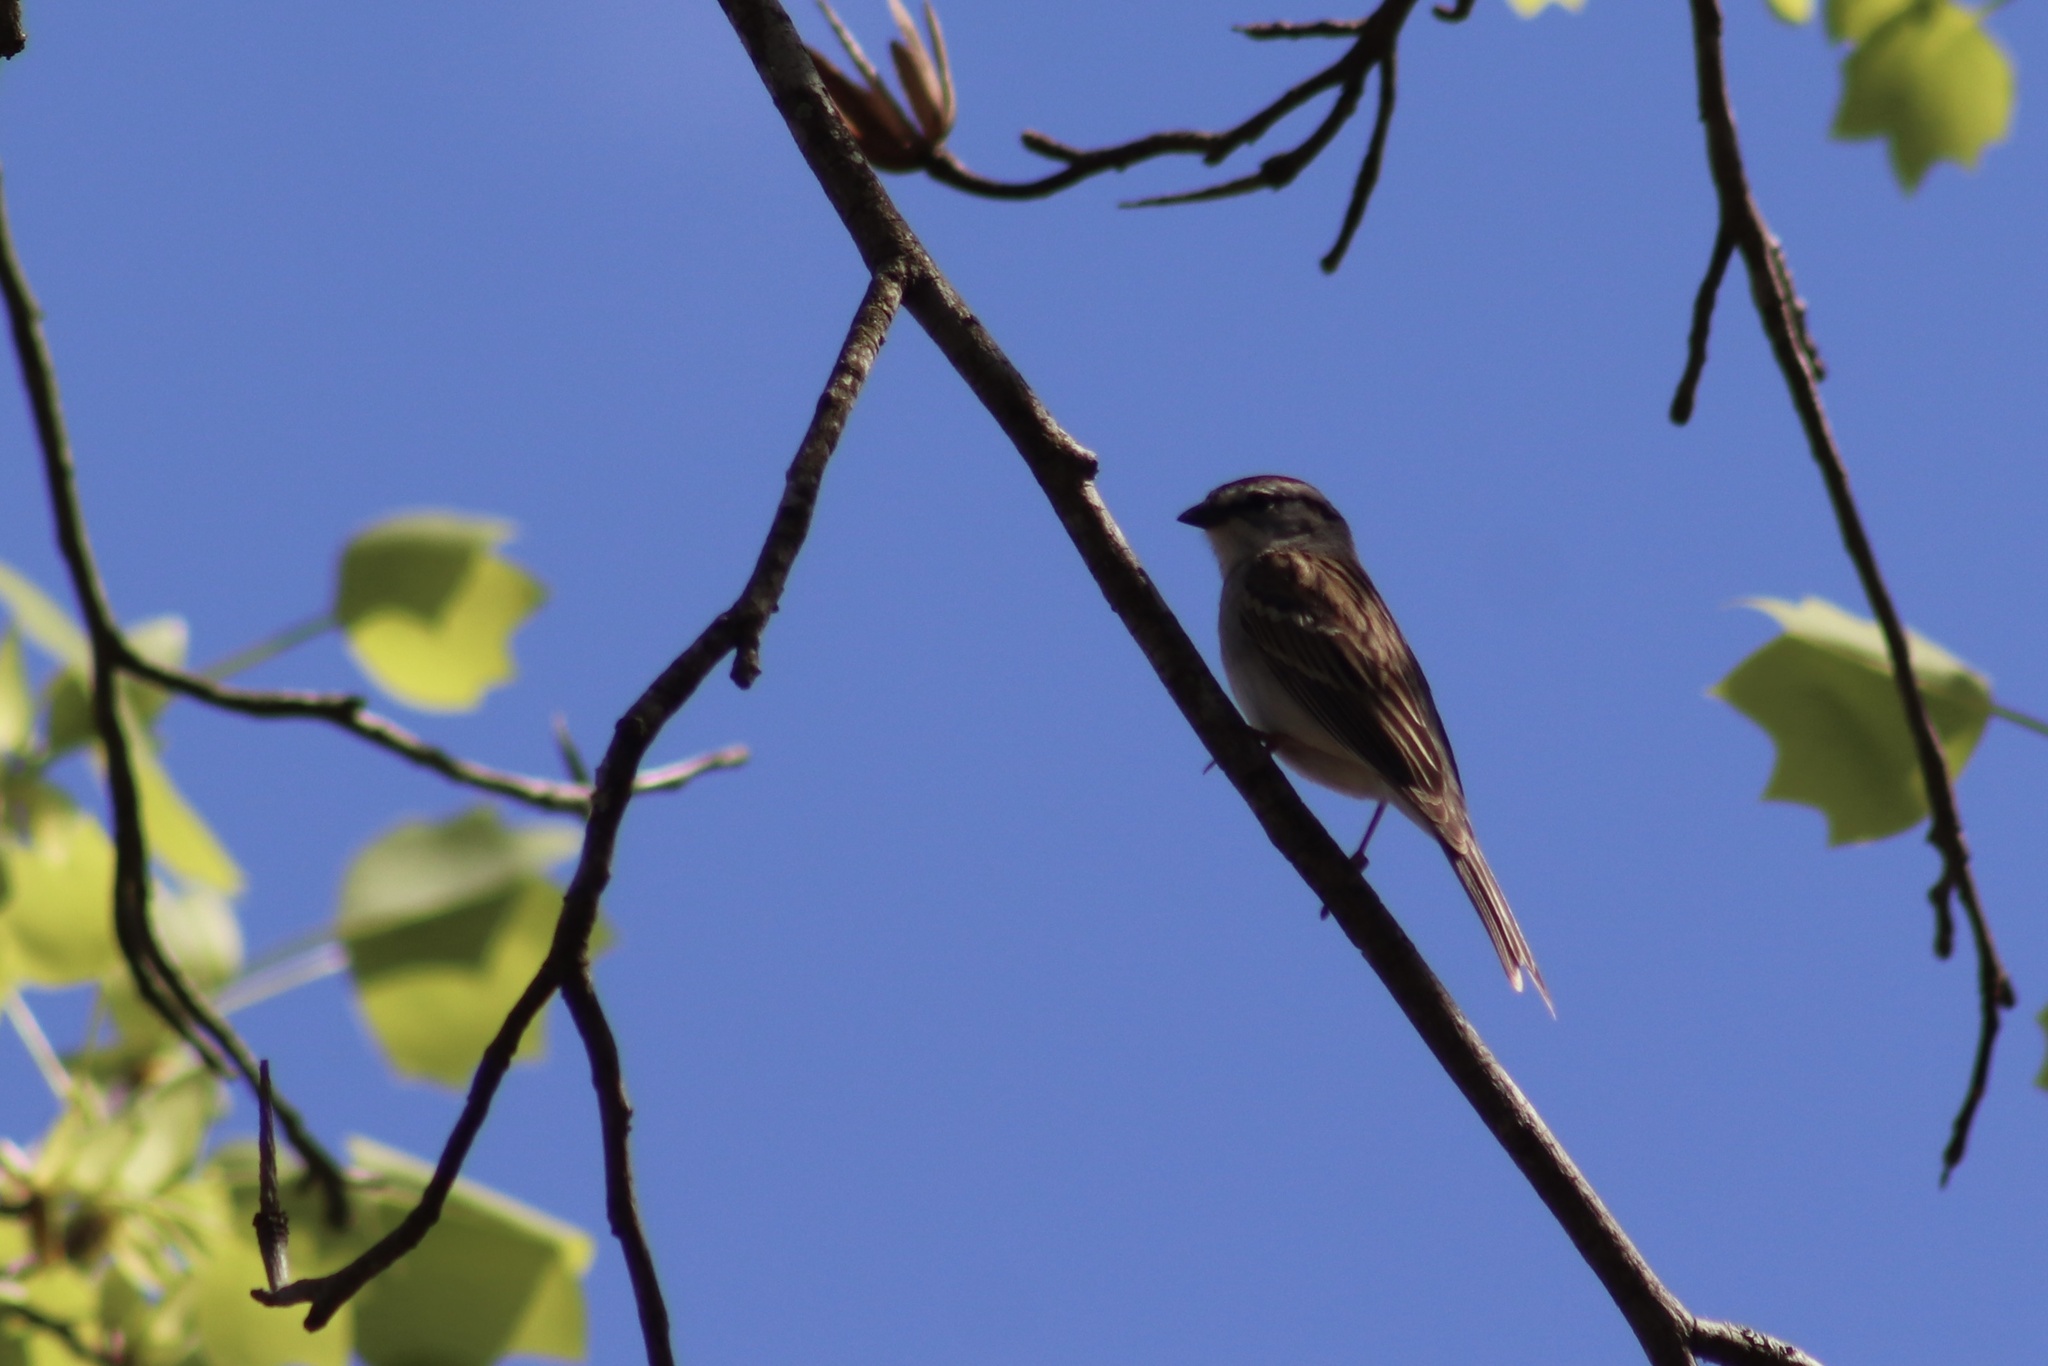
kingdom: Animalia
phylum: Chordata
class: Aves
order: Passeriformes
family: Passerellidae
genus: Spizella
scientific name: Spizella passerina
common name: Chipping sparrow
